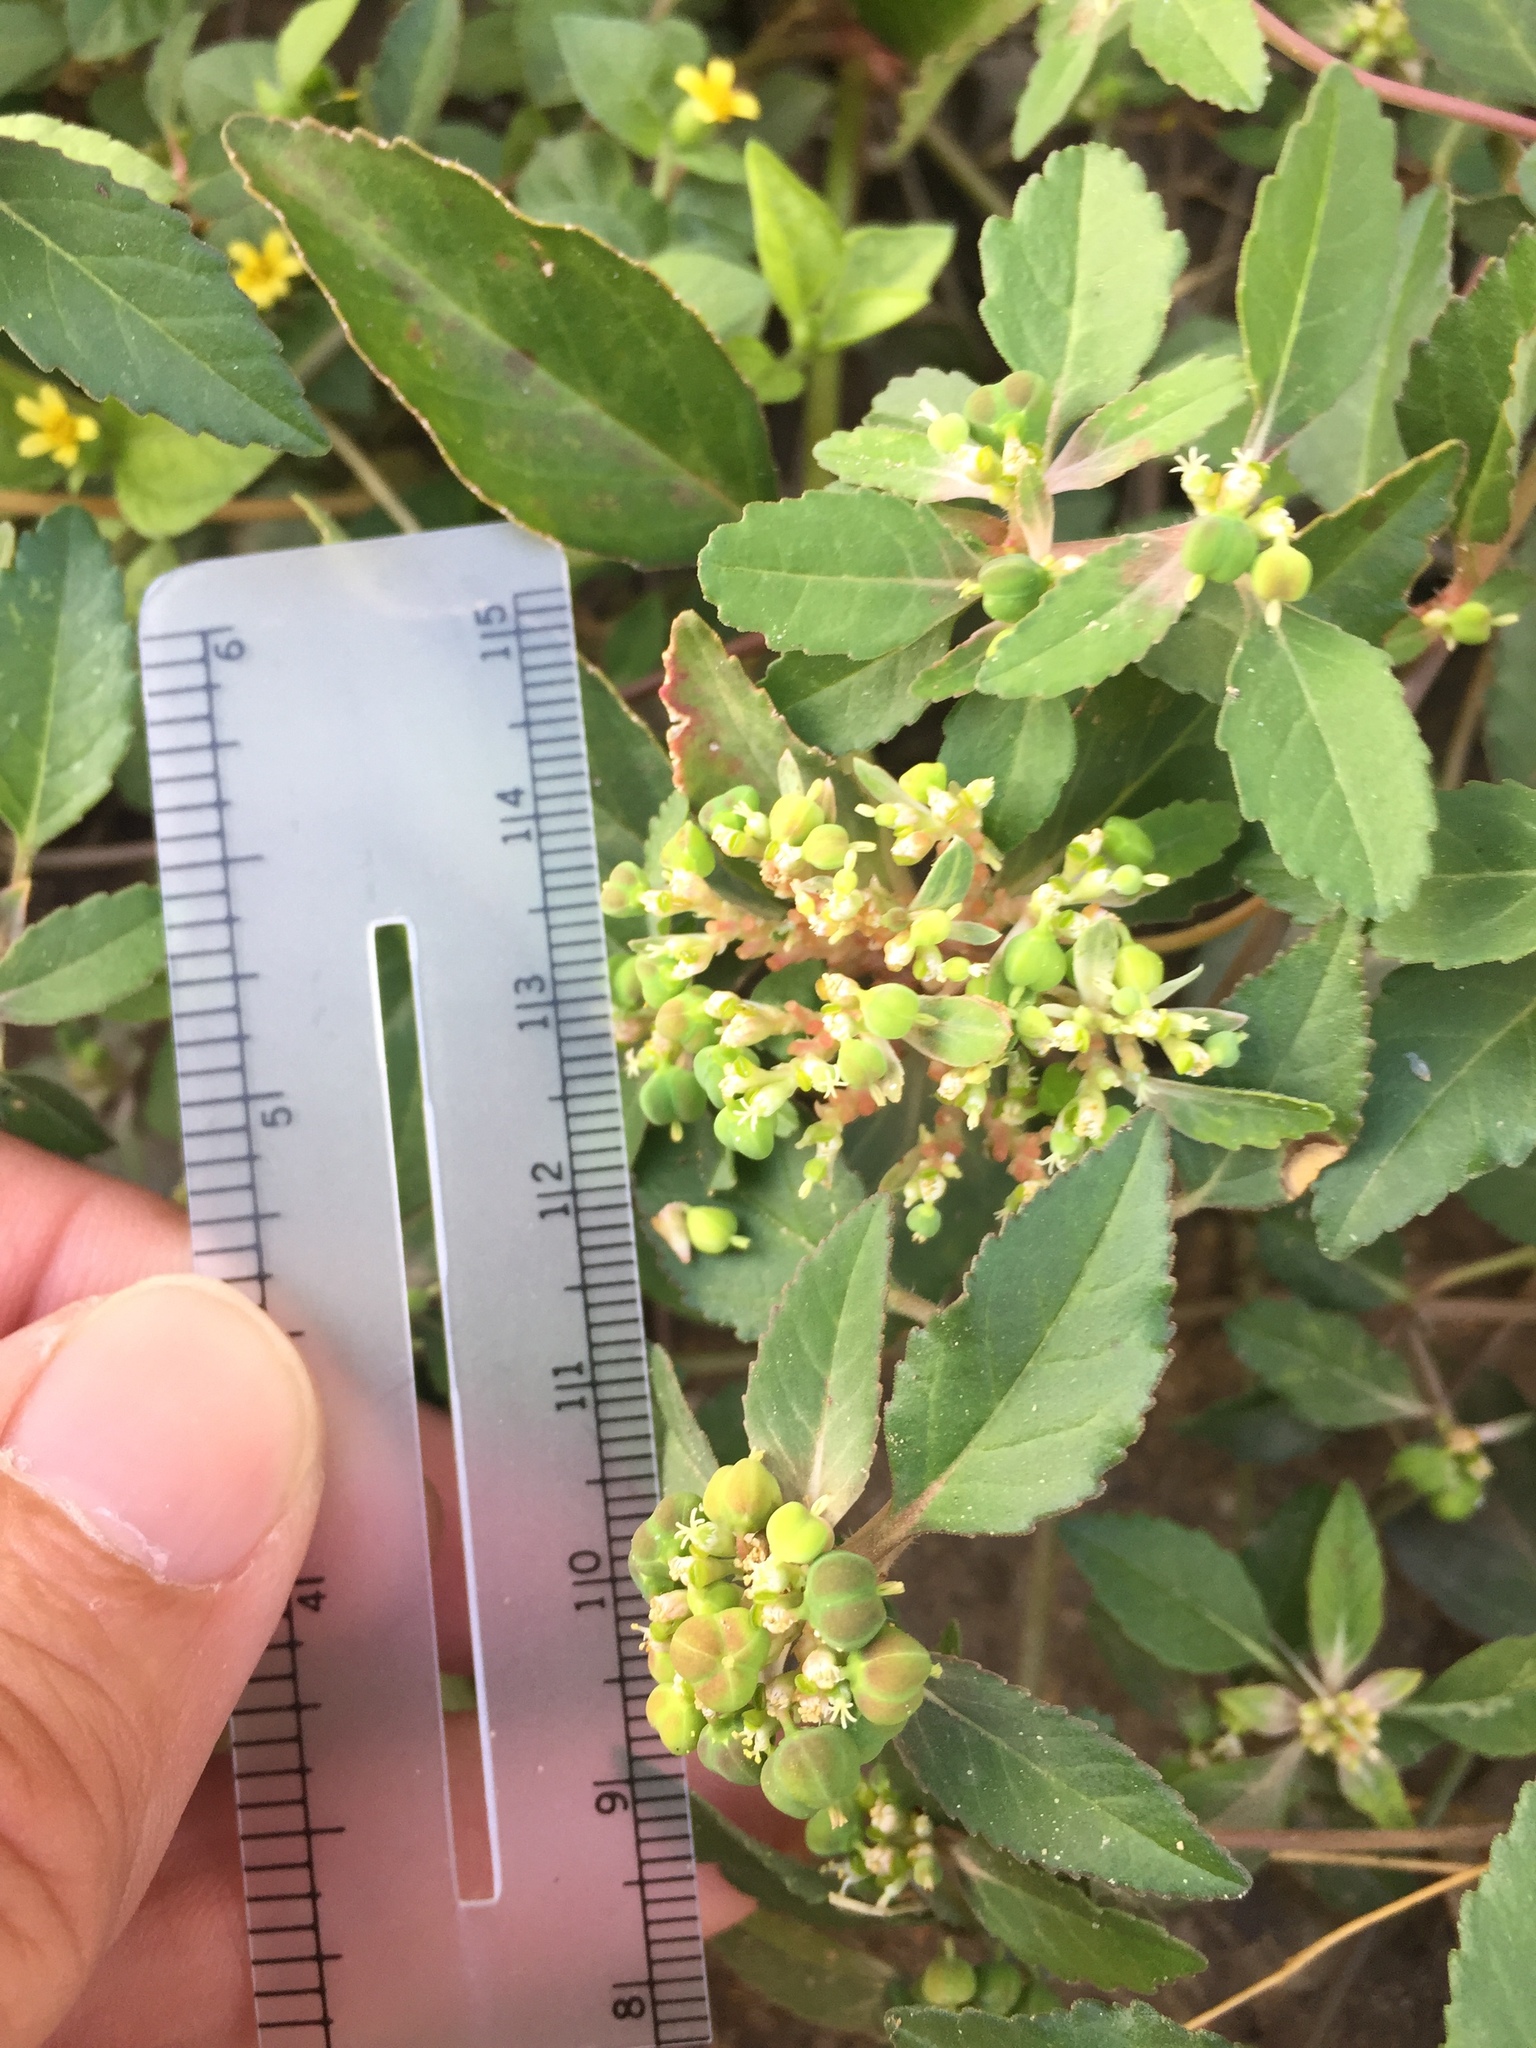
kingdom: Plantae
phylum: Tracheophyta
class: Magnoliopsida
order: Malpighiales
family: Euphorbiaceae
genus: Euphorbia
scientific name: Euphorbia davidii
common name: David's spurge
